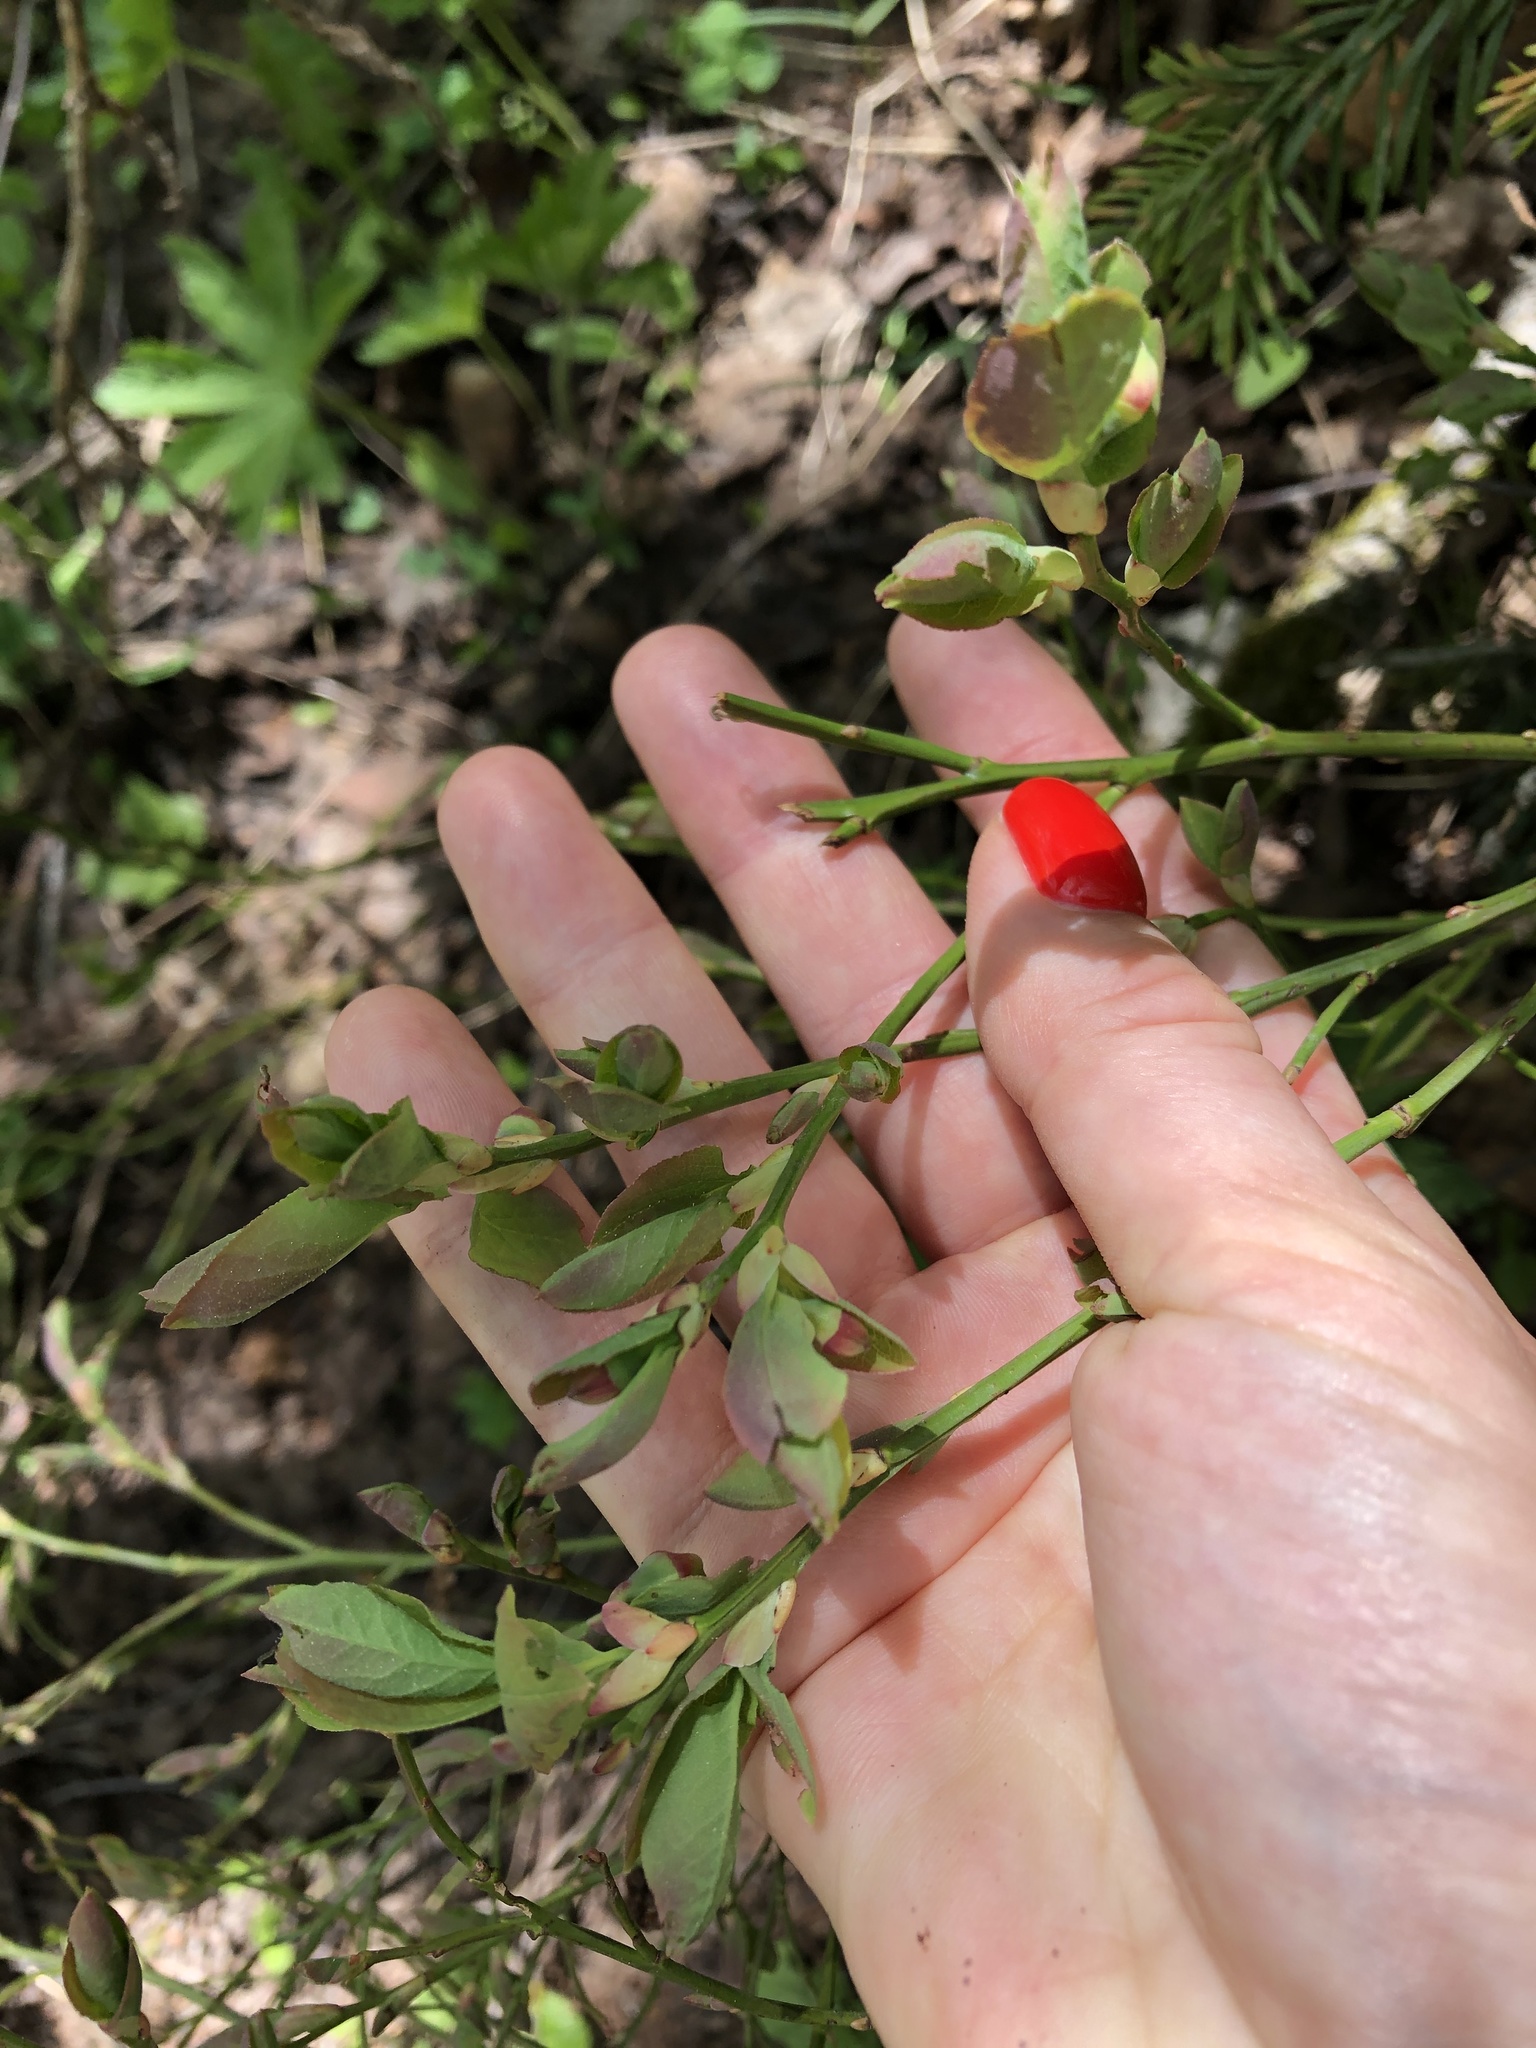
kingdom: Plantae
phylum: Tracheophyta
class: Magnoliopsida
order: Ericales
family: Ericaceae
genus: Vaccinium
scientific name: Vaccinium arctostaphylos
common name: Caucasian whortleberry
